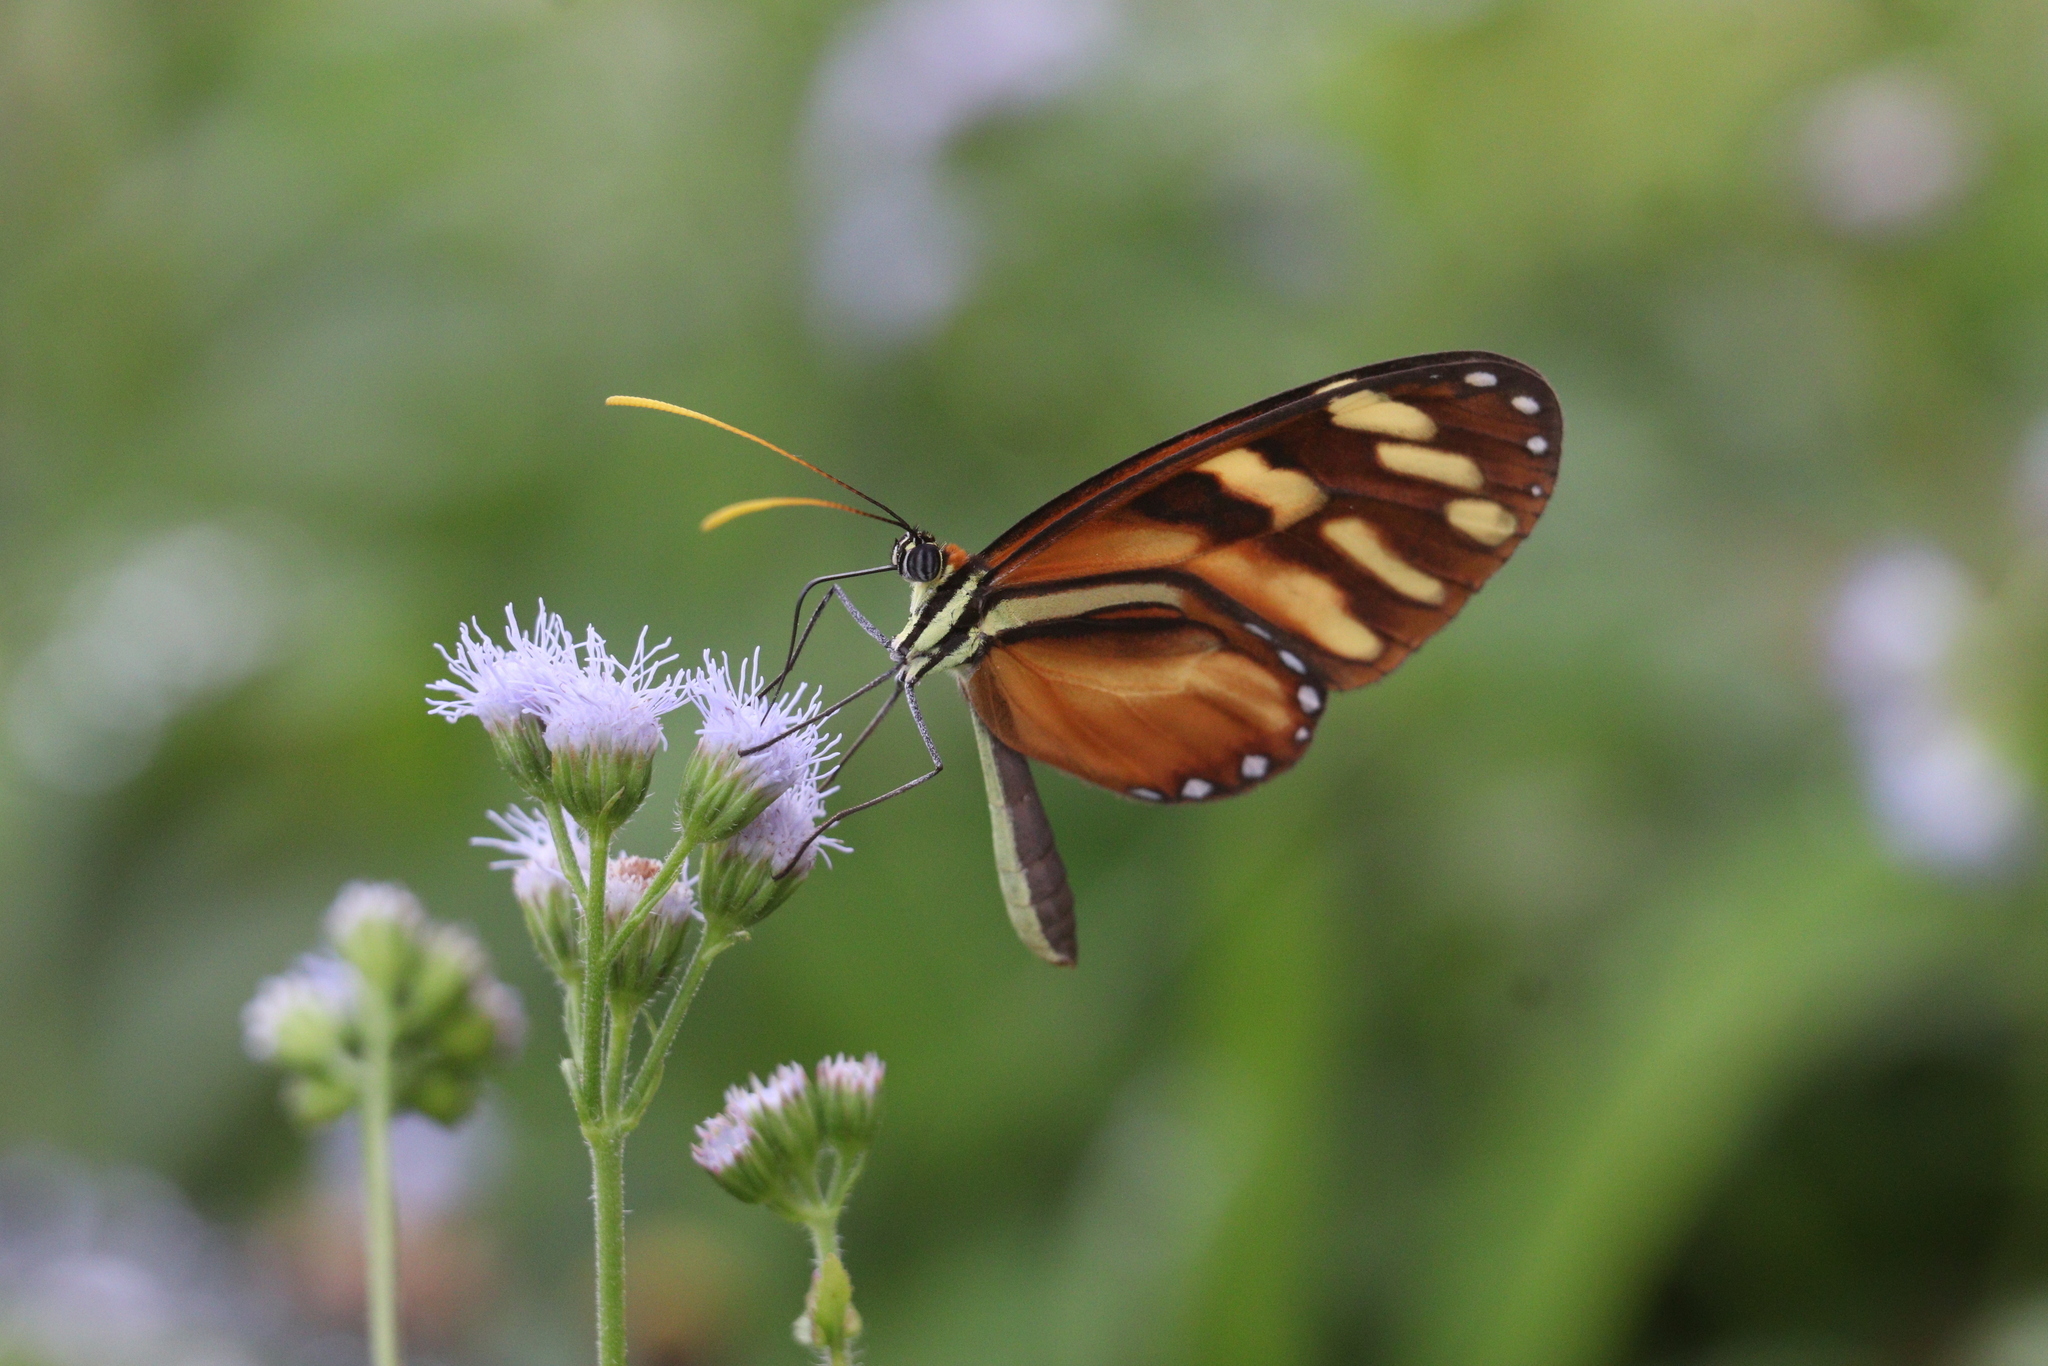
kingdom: Animalia
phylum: Arthropoda
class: Insecta
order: Lepidoptera
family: Nymphalidae
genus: Ithomia
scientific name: Ithomia heraldica
